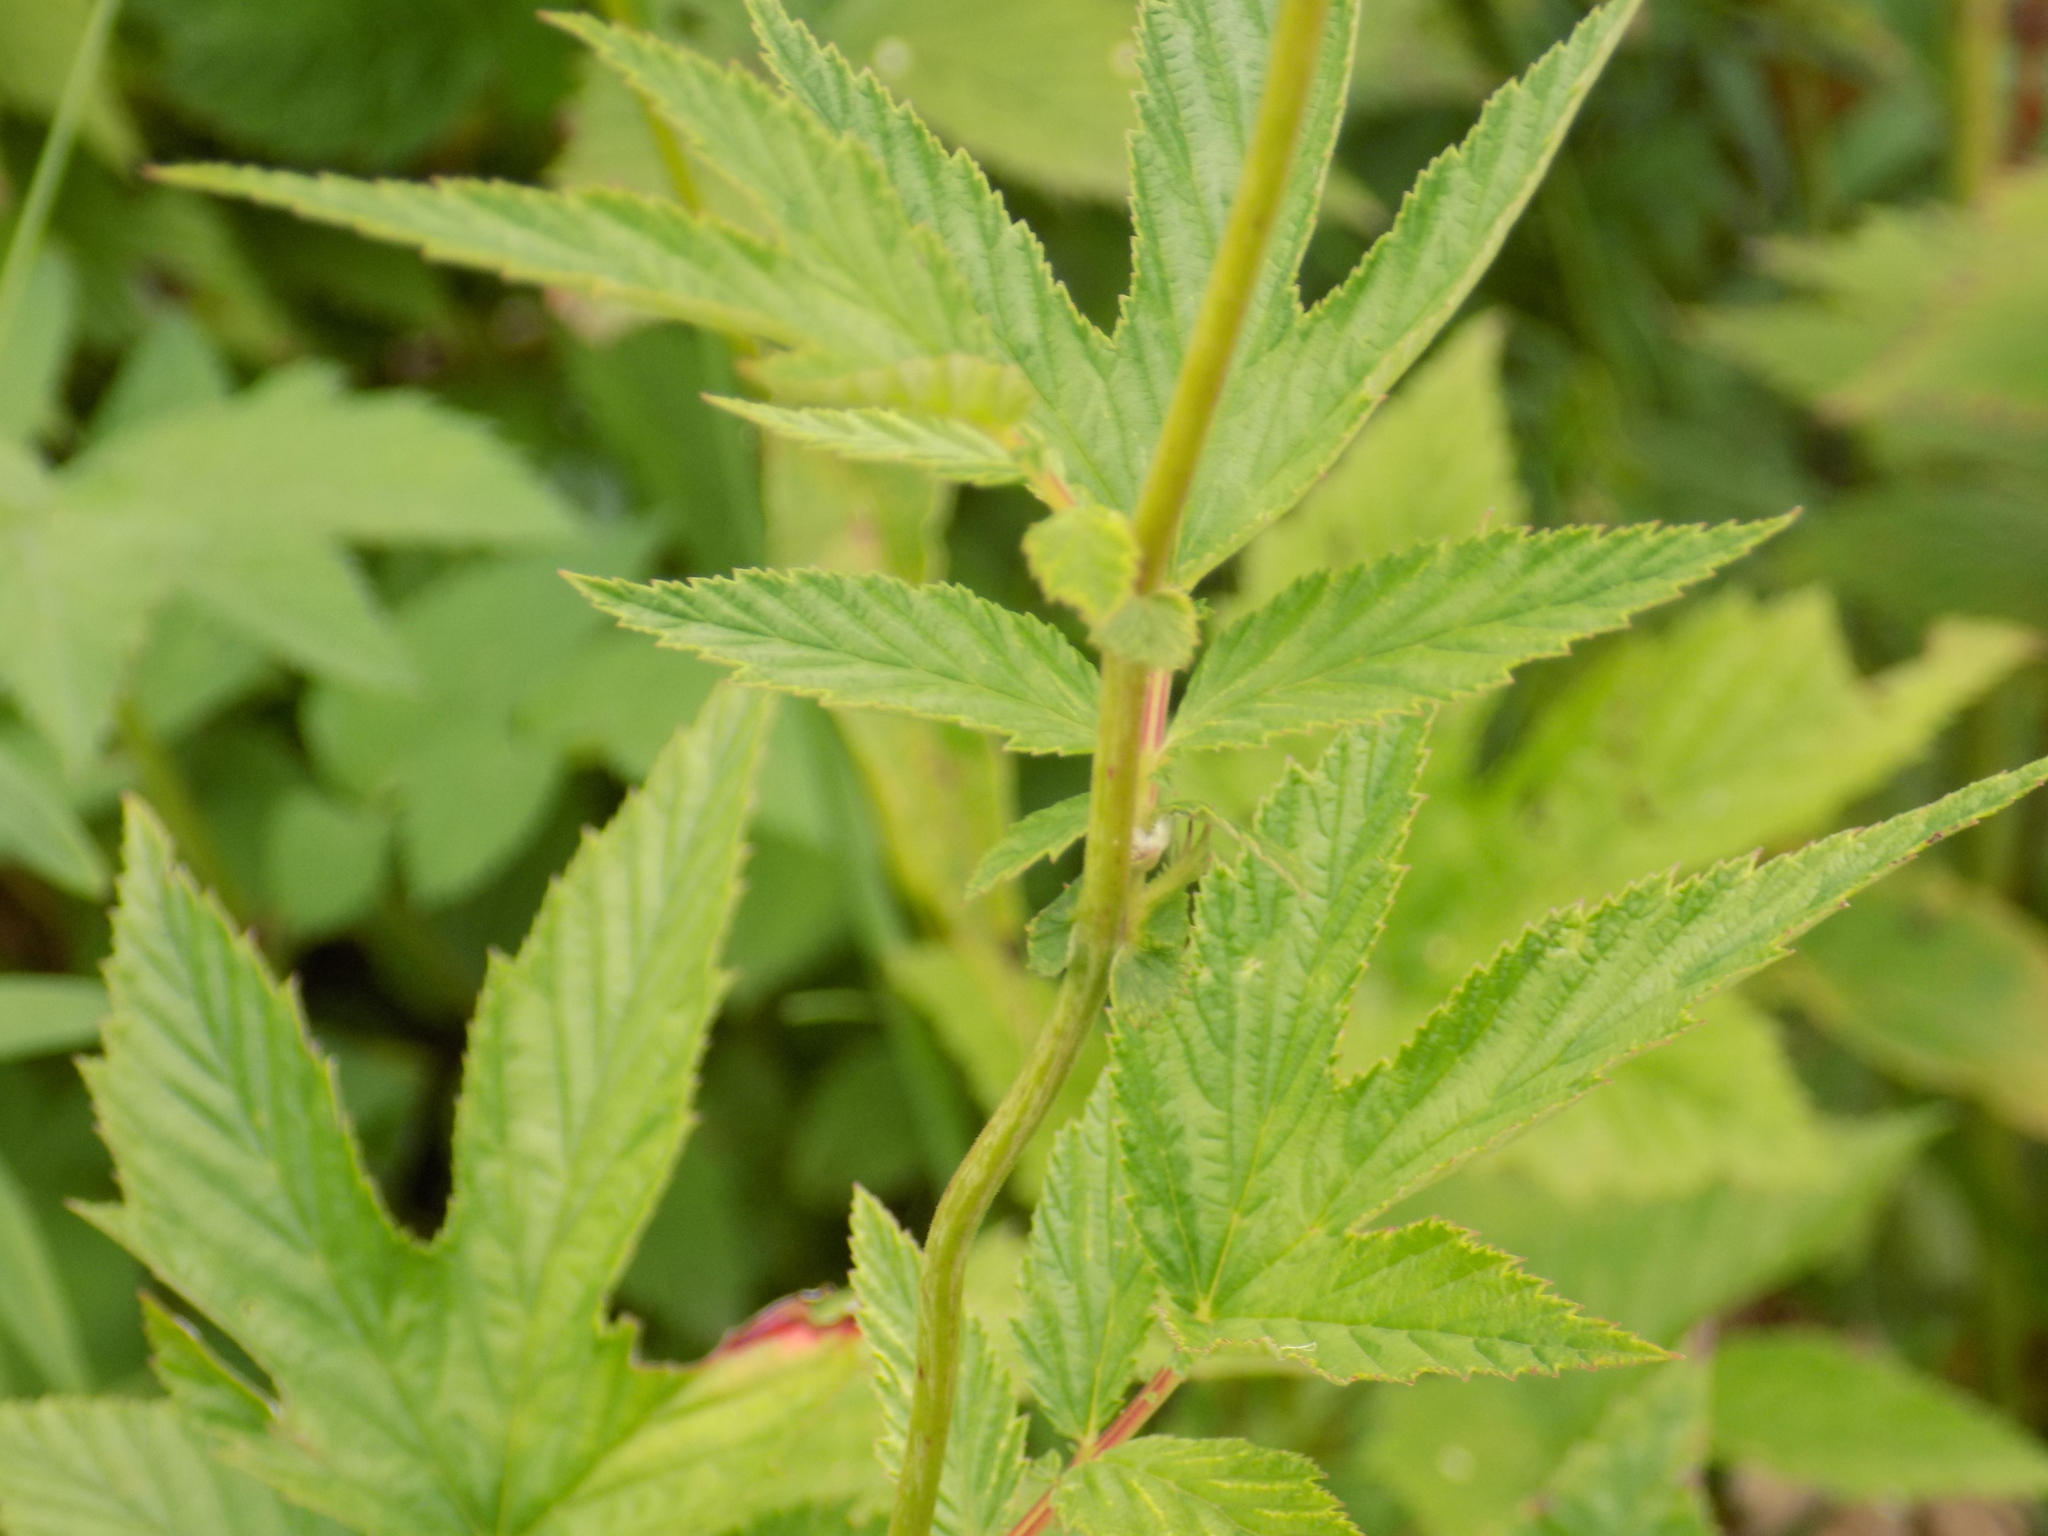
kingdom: Plantae
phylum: Tracheophyta
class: Magnoliopsida
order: Rosales
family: Rosaceae
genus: Filipendula
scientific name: Filipendula ulmaria
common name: Meadowsweet
